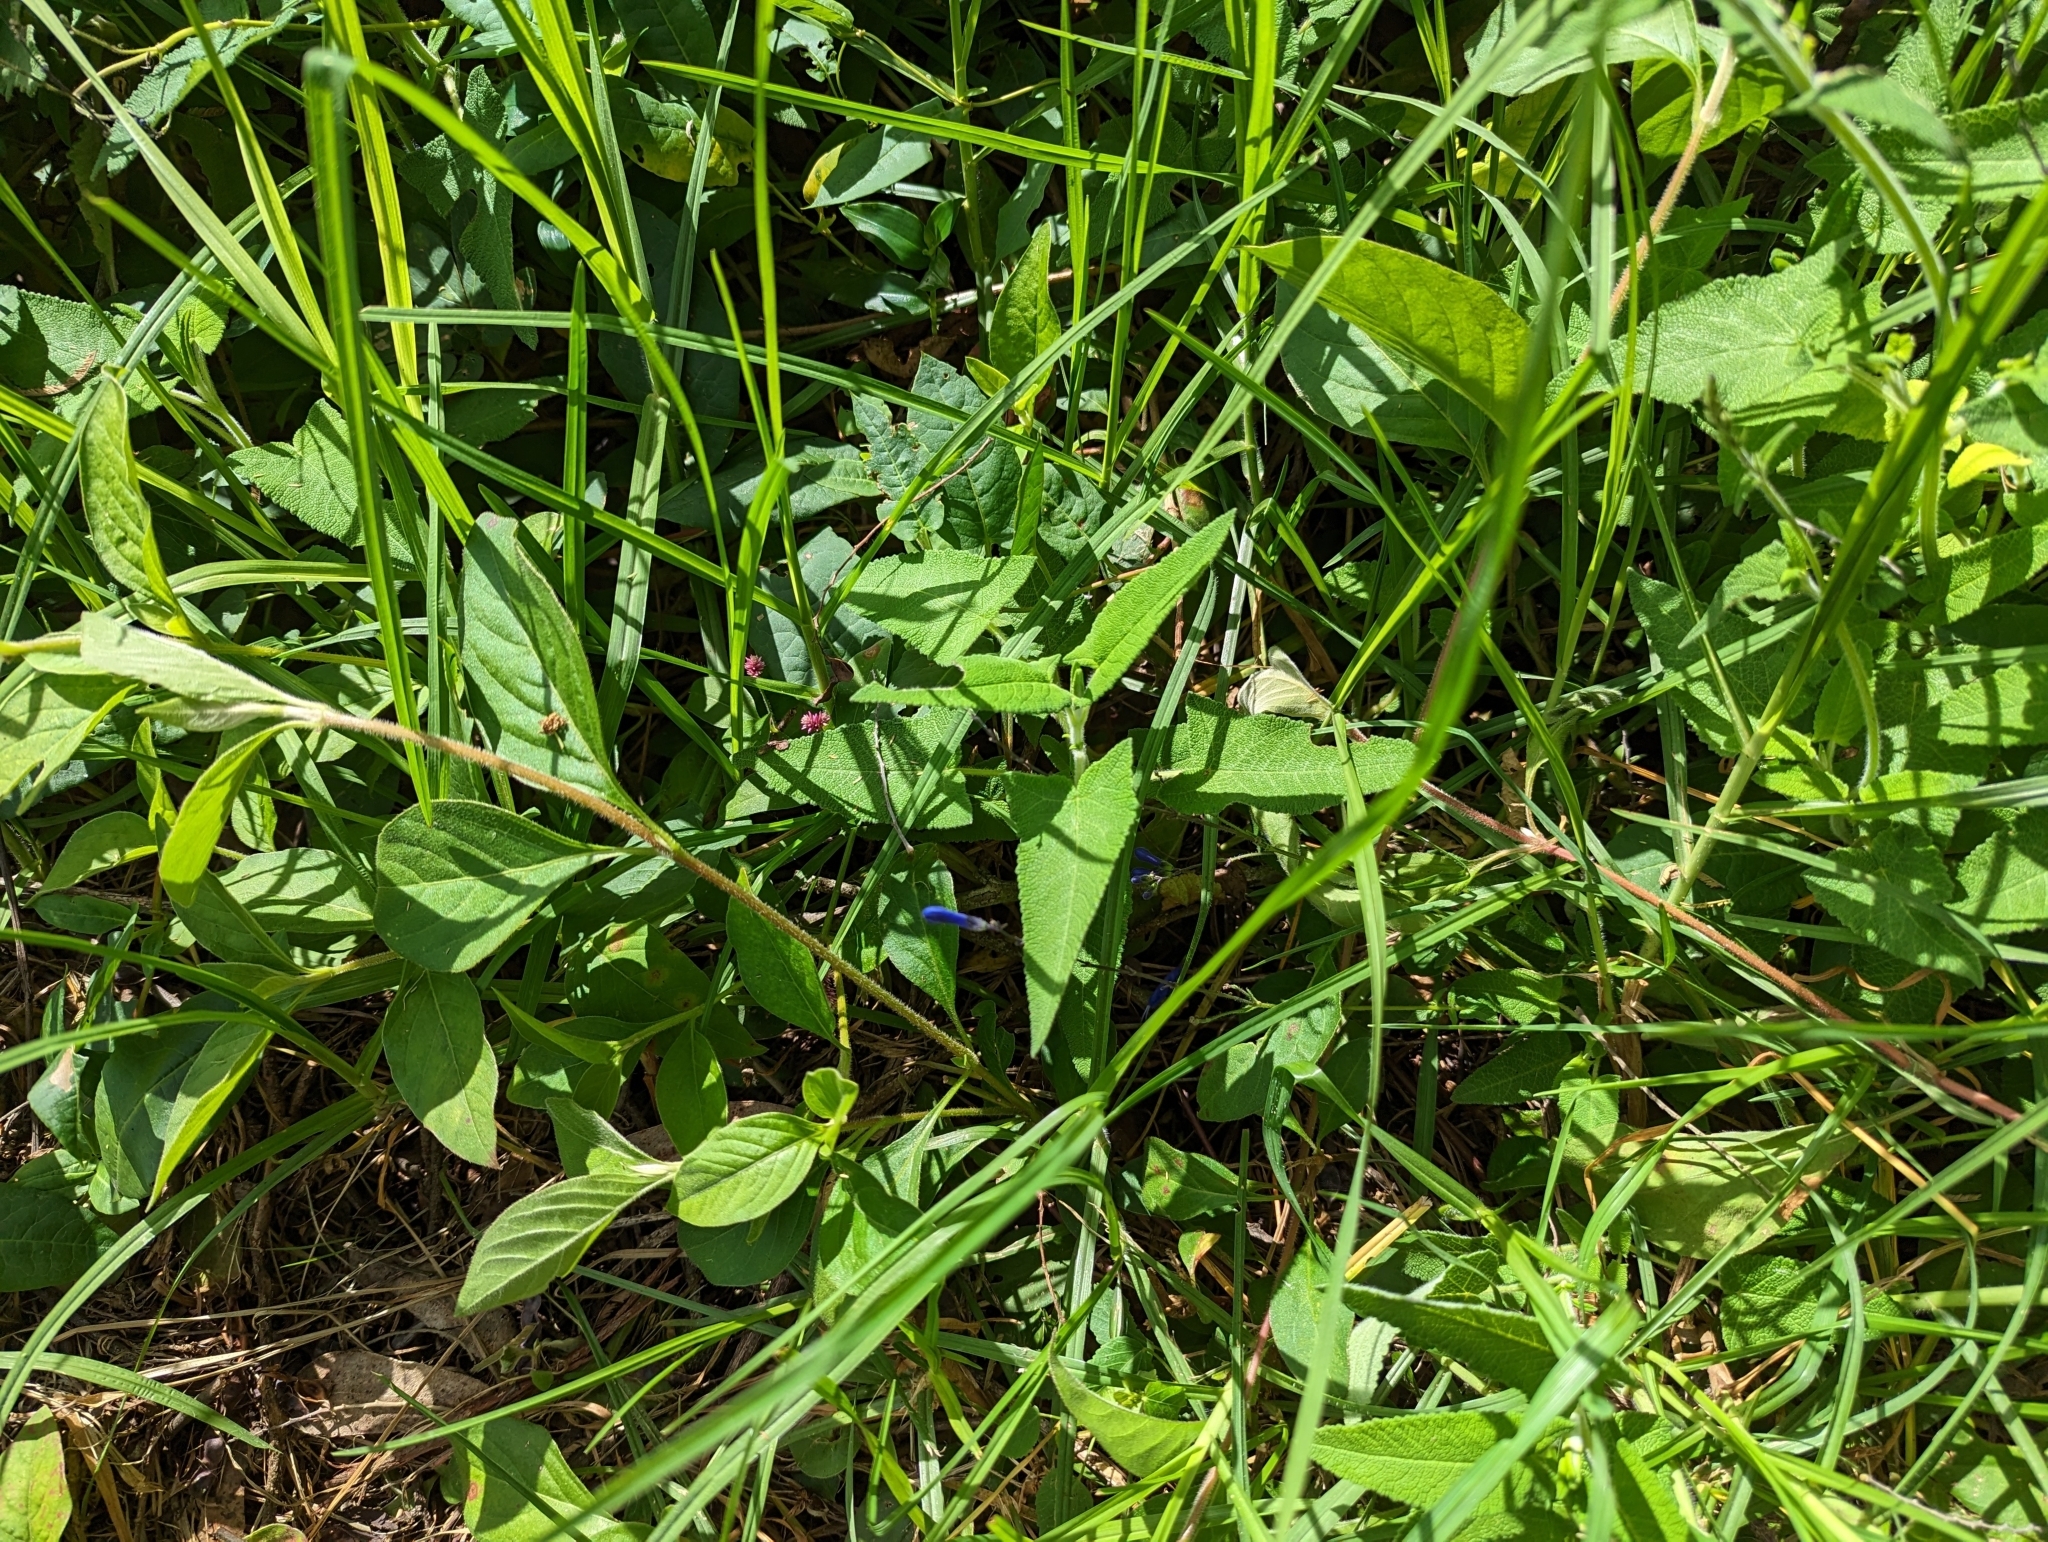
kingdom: Plantae
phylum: Tracheophyta
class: Magnoliopsida
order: Lamiales
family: Lamiaceae
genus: Salvia
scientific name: Salvia sagittata
